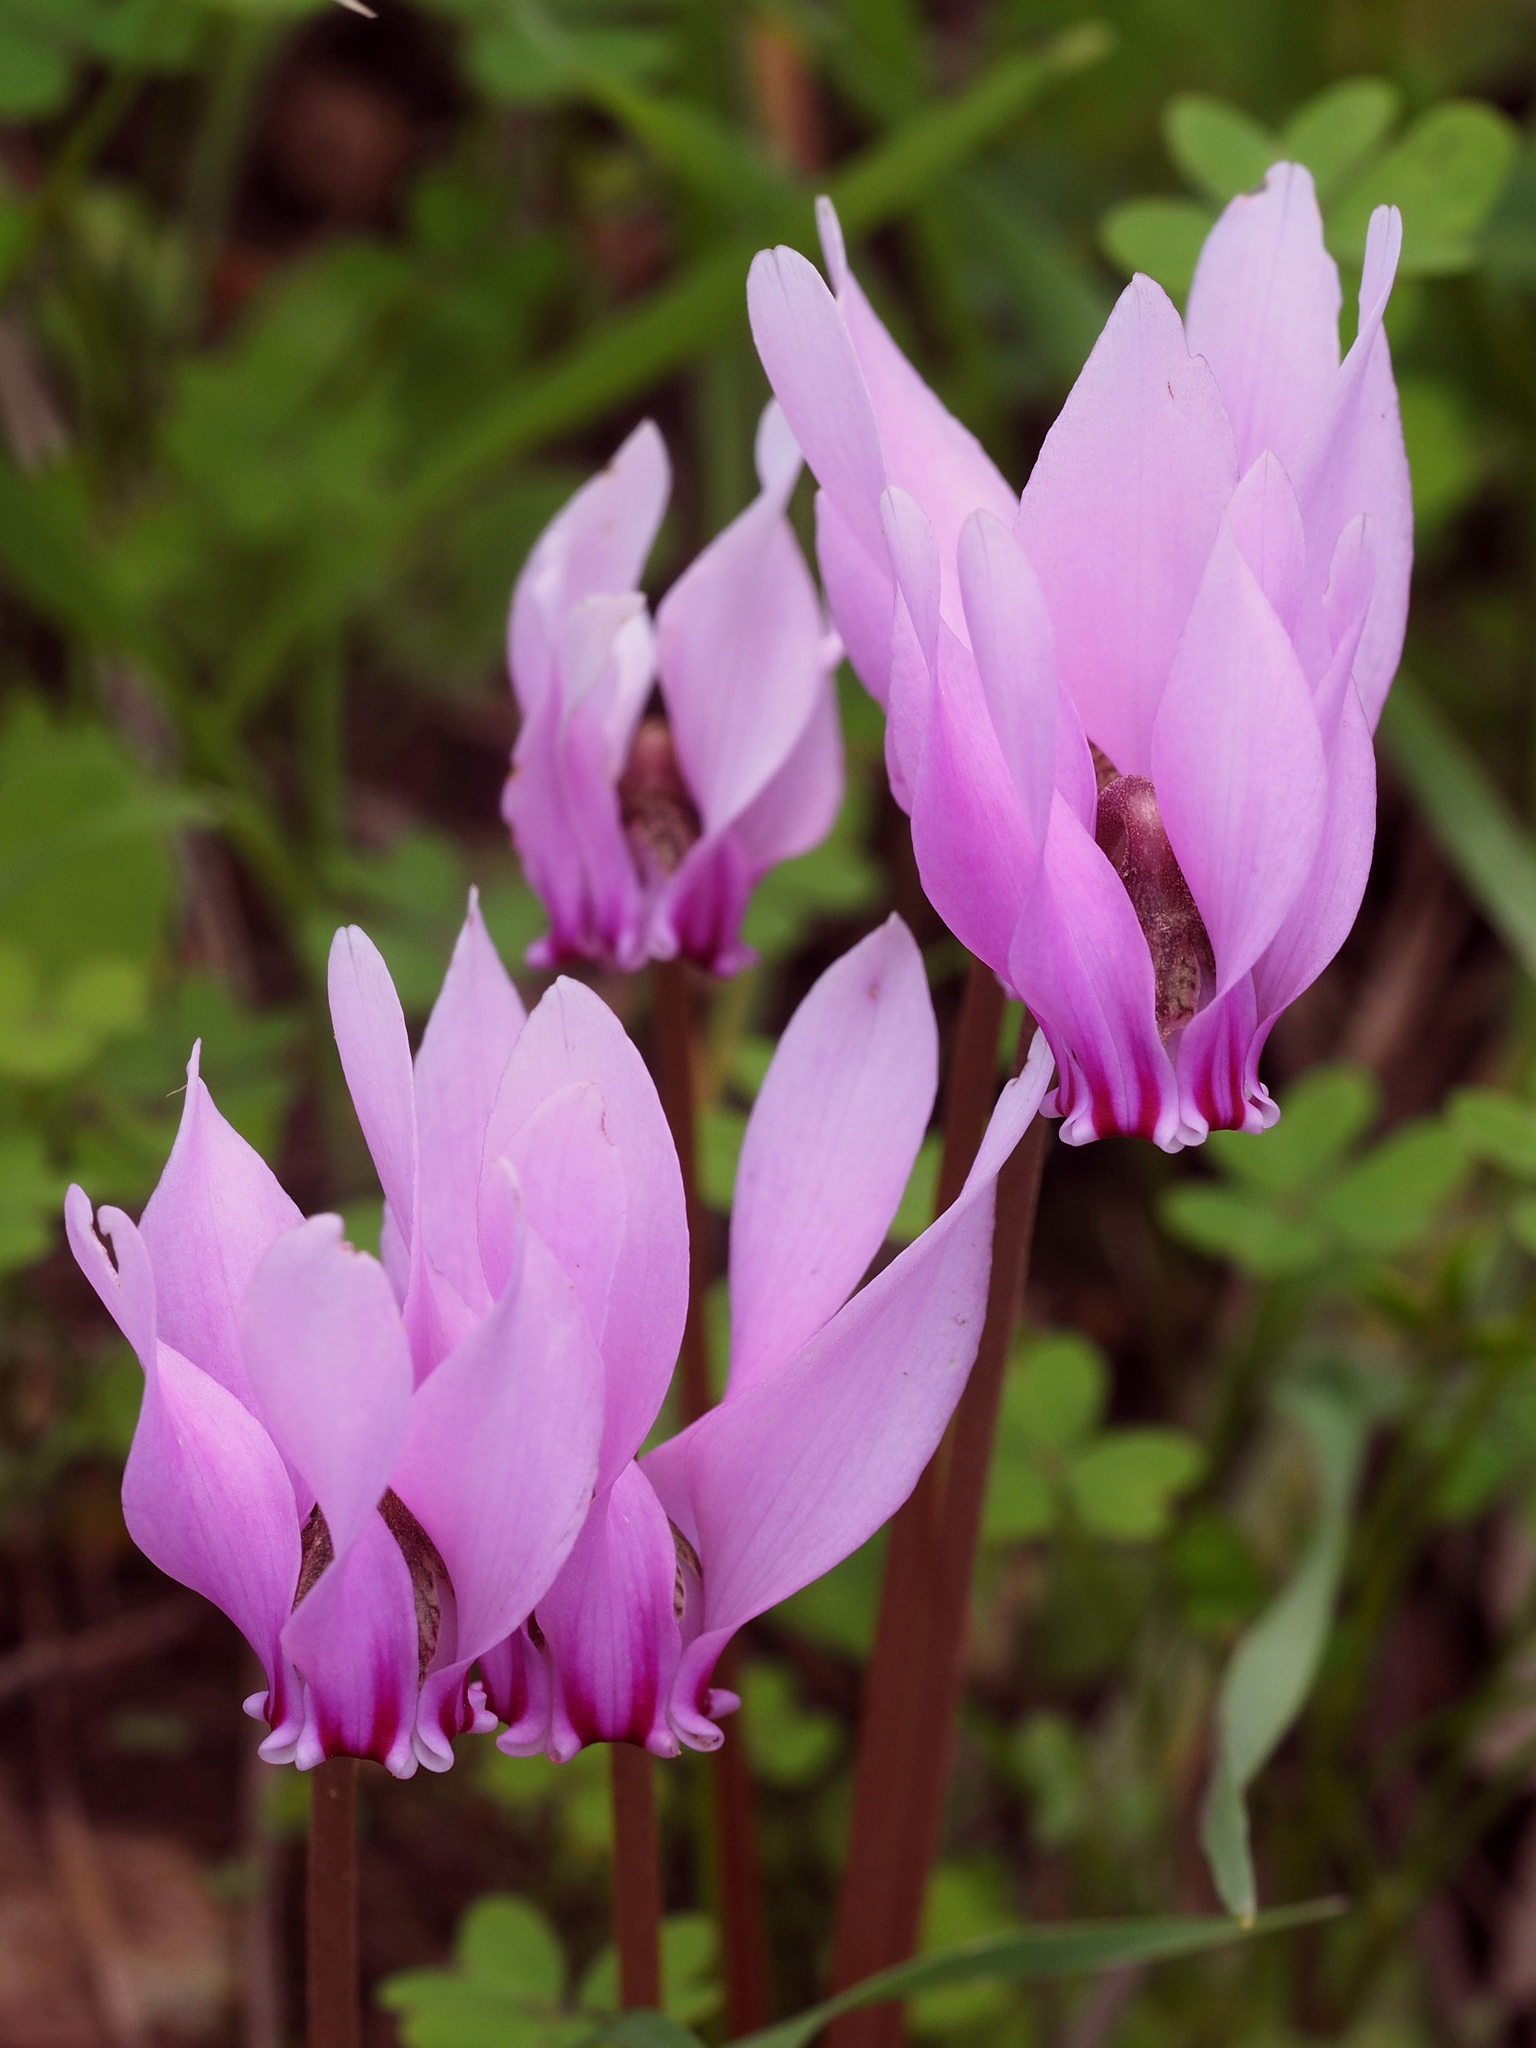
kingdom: Plantae
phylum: Tracheophyta
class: Magnoliopsida
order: Ericales
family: Primulaceae
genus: Cyclamen
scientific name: Cyclamen hederifolium
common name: Sowbread
